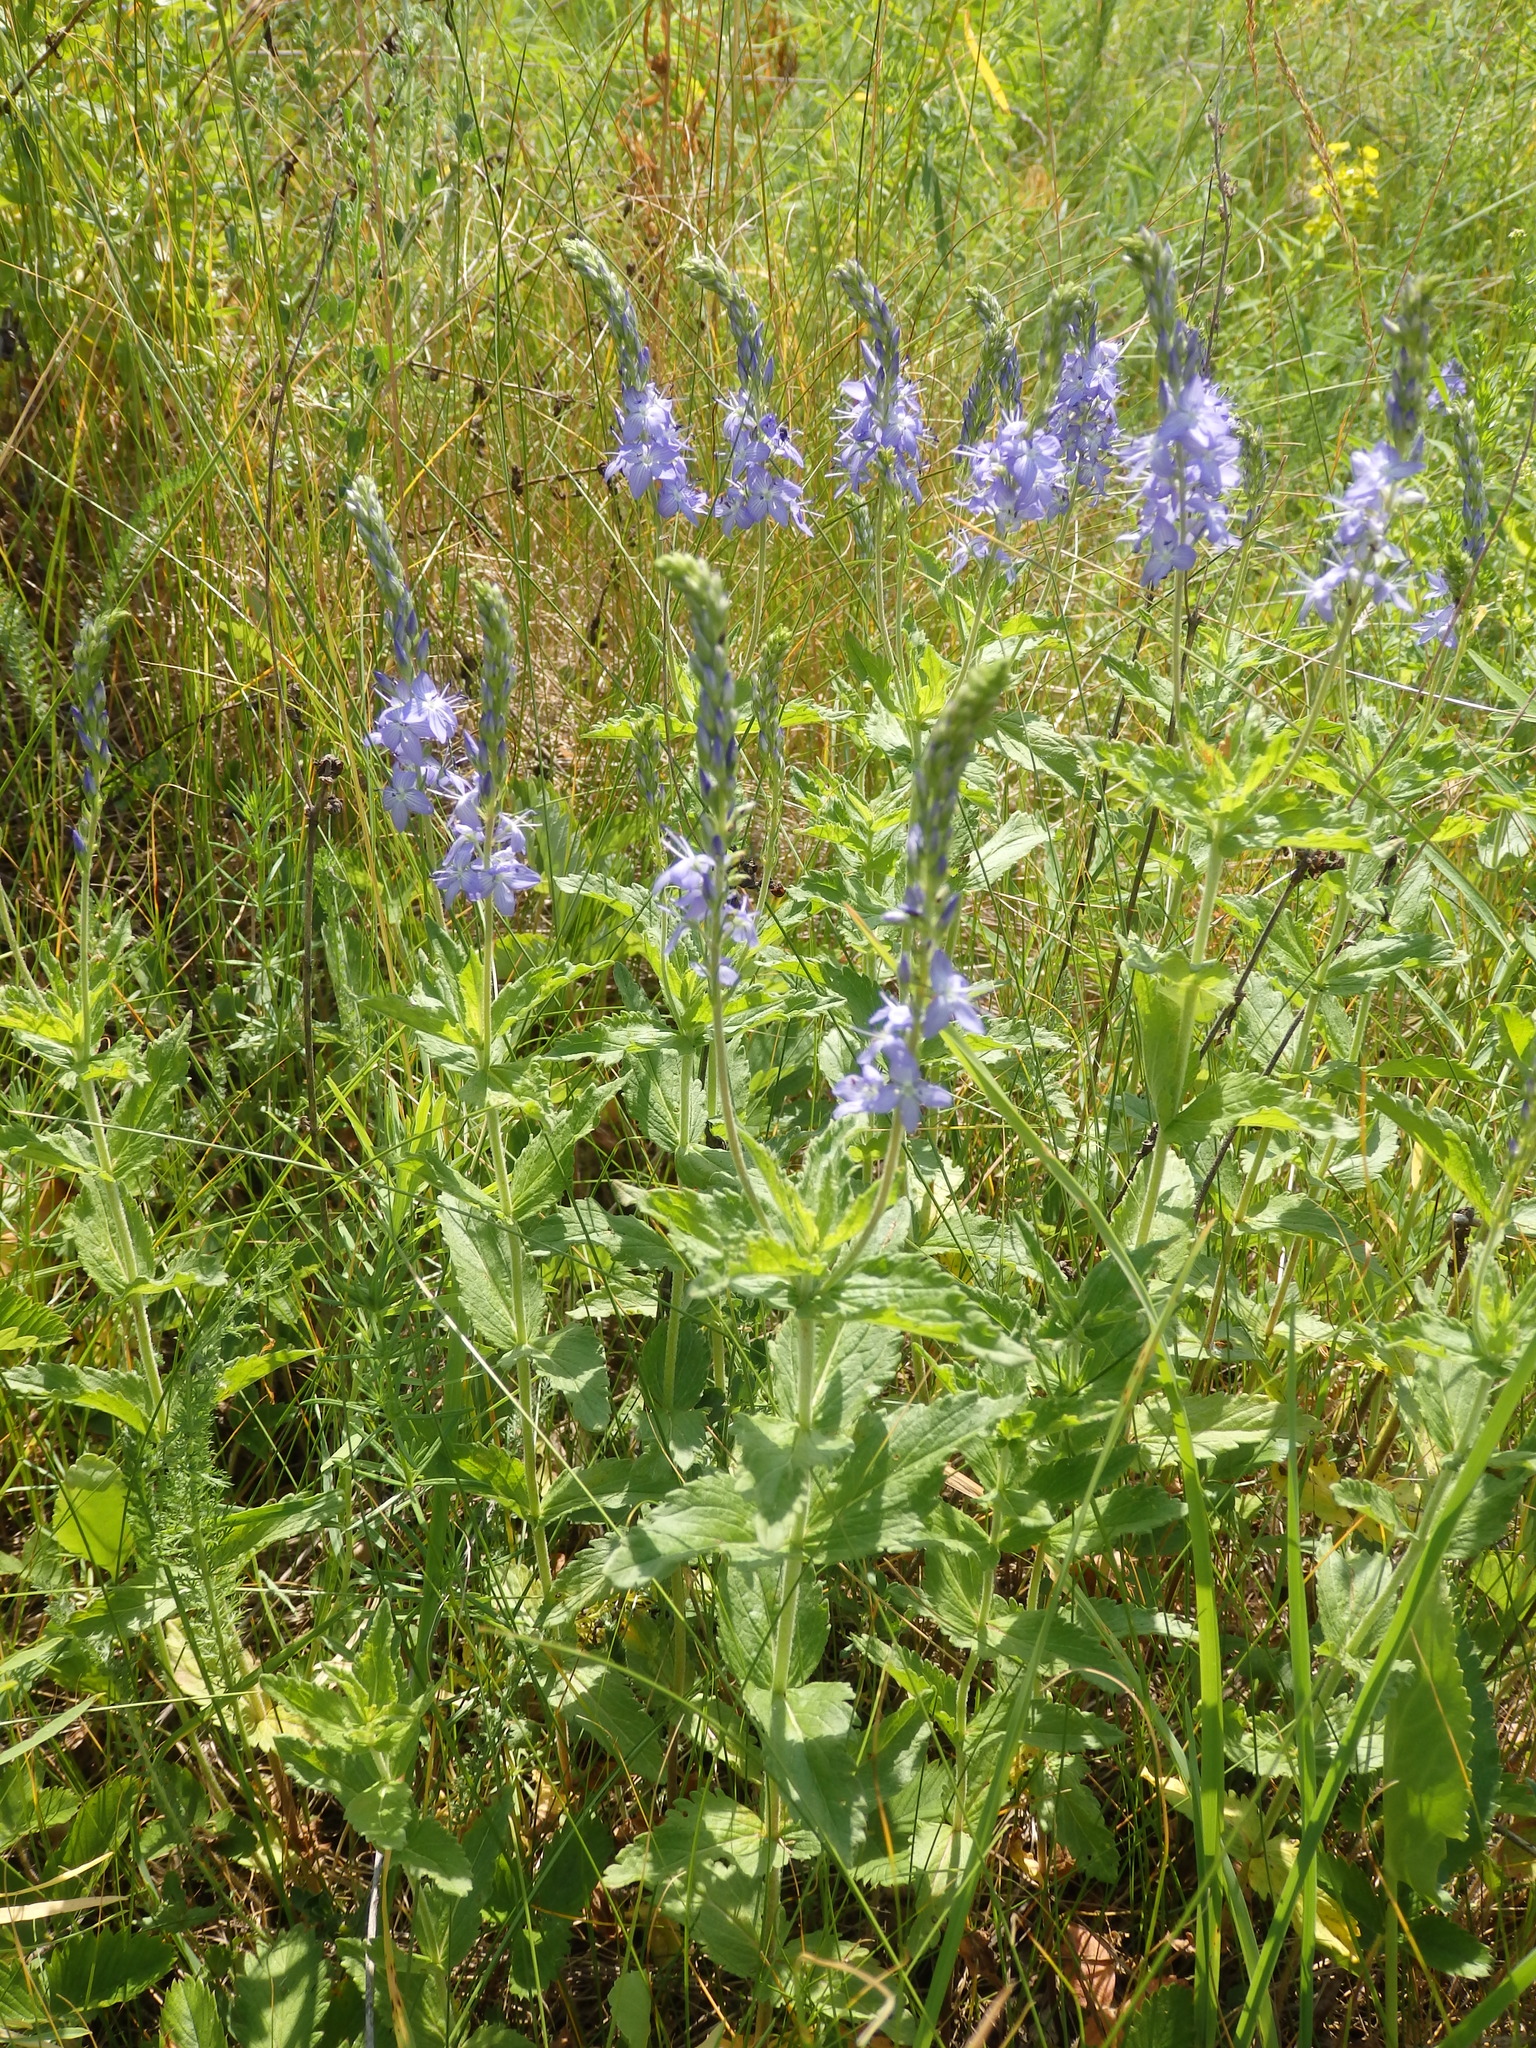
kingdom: Plantae
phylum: Tracheophyta
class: Magnoliopsida
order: Lamiales
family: Plantaginaceae
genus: Veronica
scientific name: Veronica teucrium
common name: Large speedwell
